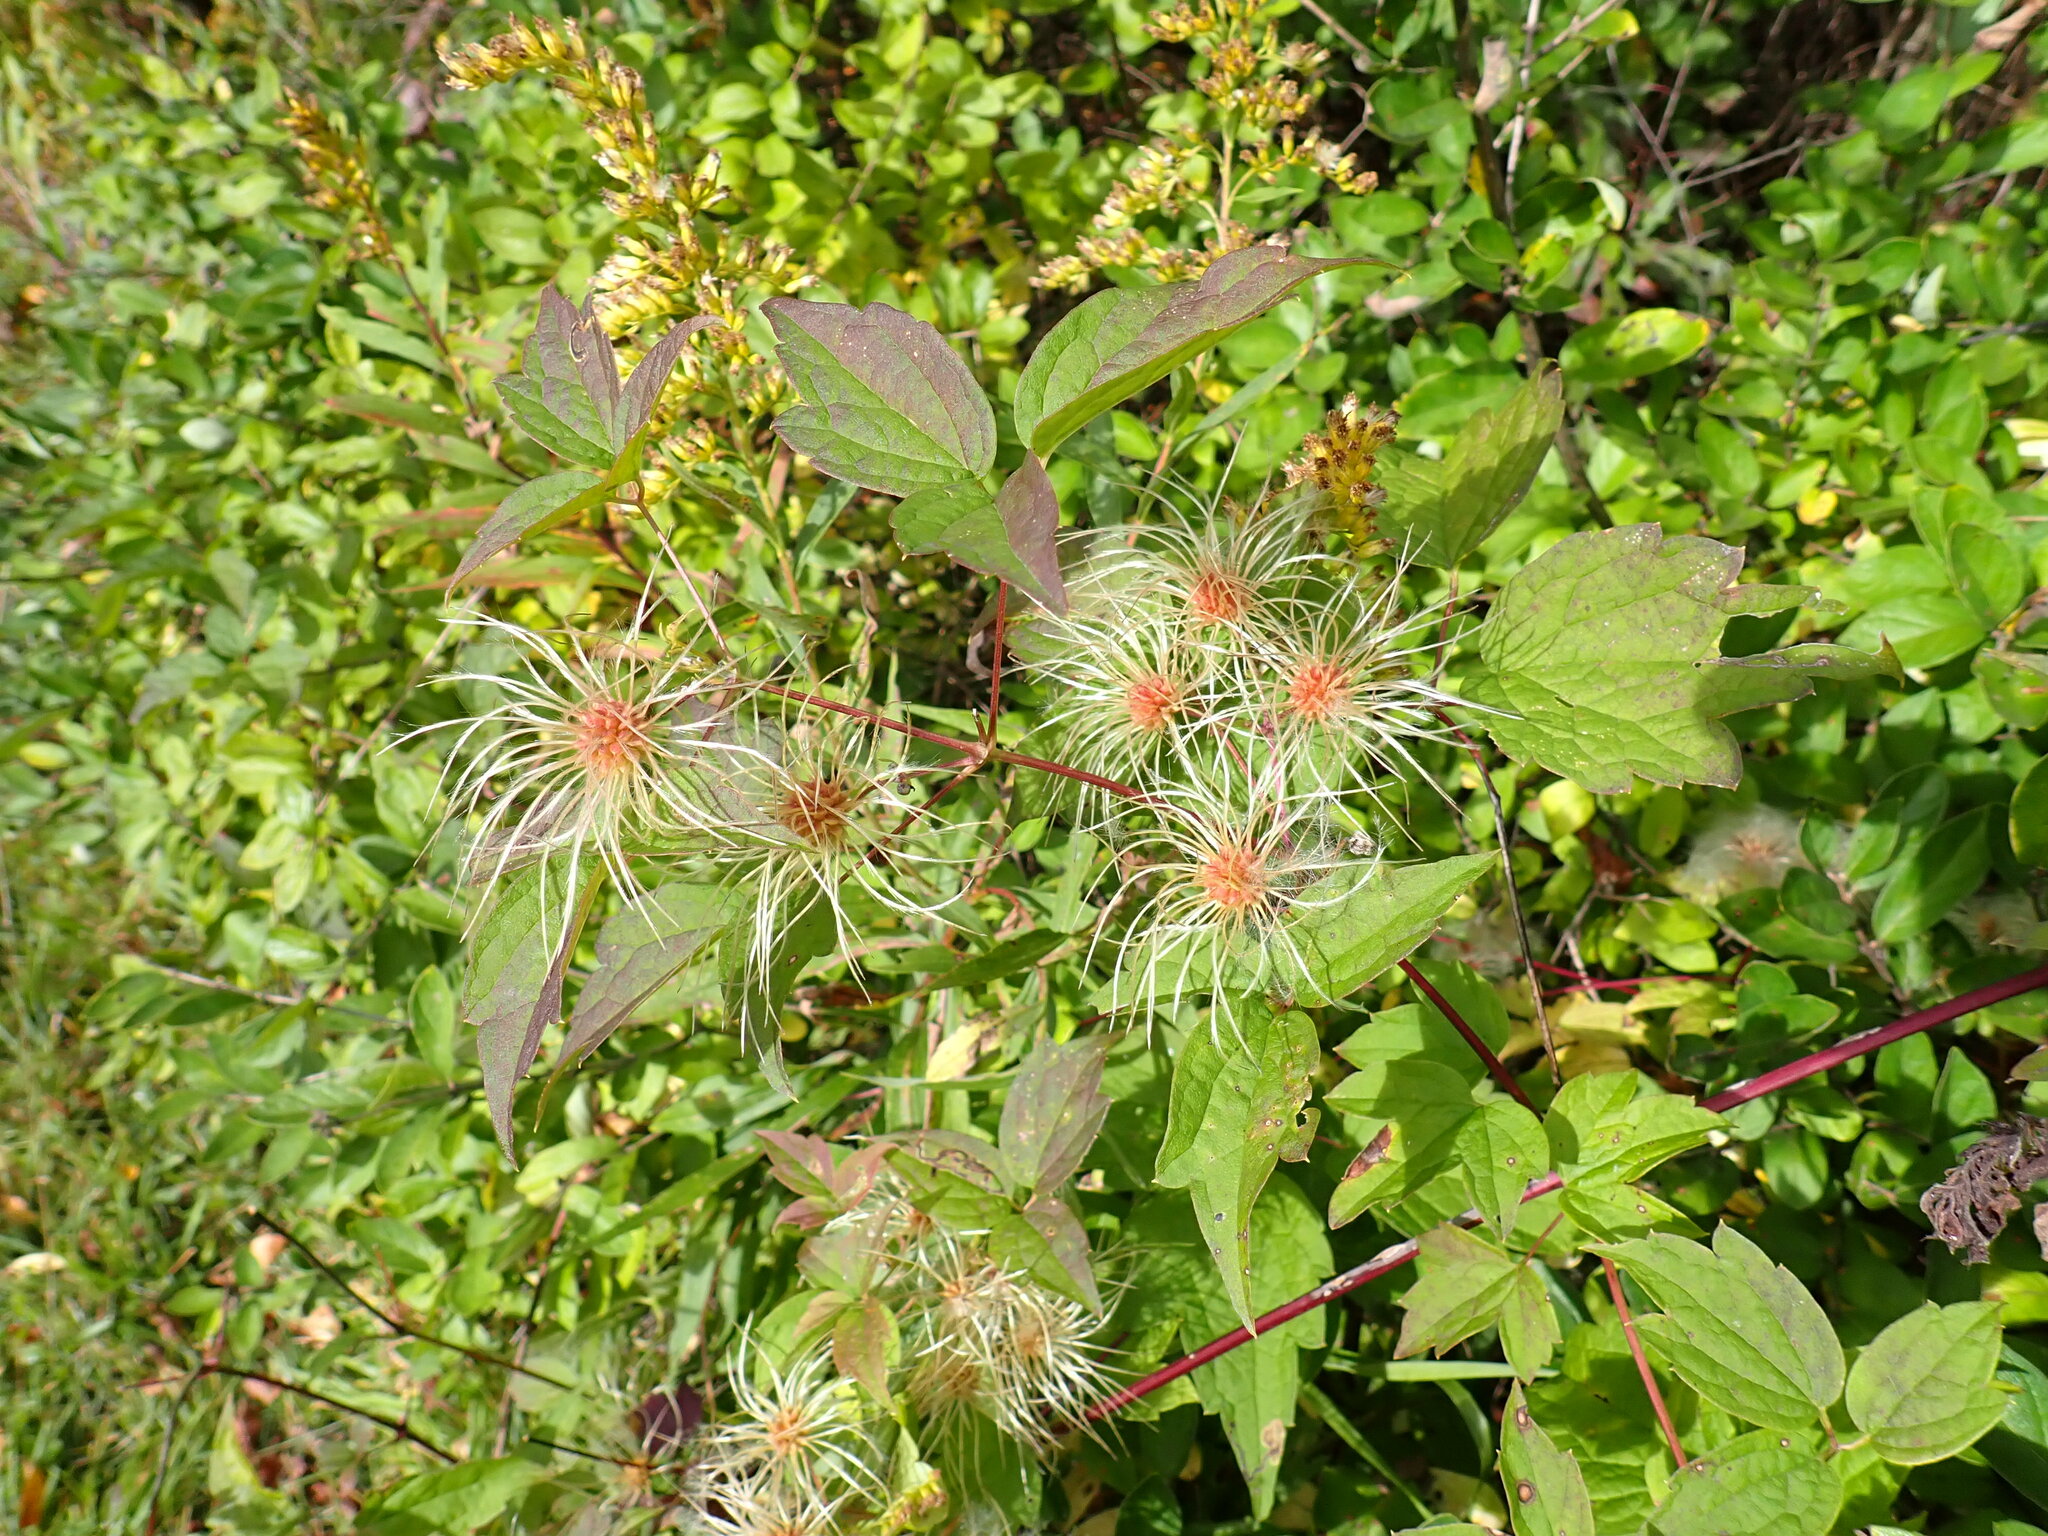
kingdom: Plantae
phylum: Tracheophyta
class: Magnoliopsida
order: Ranunculales
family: Ranunculaceae
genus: Clematis
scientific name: Clematis virginiana
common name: Virgin's-bower
